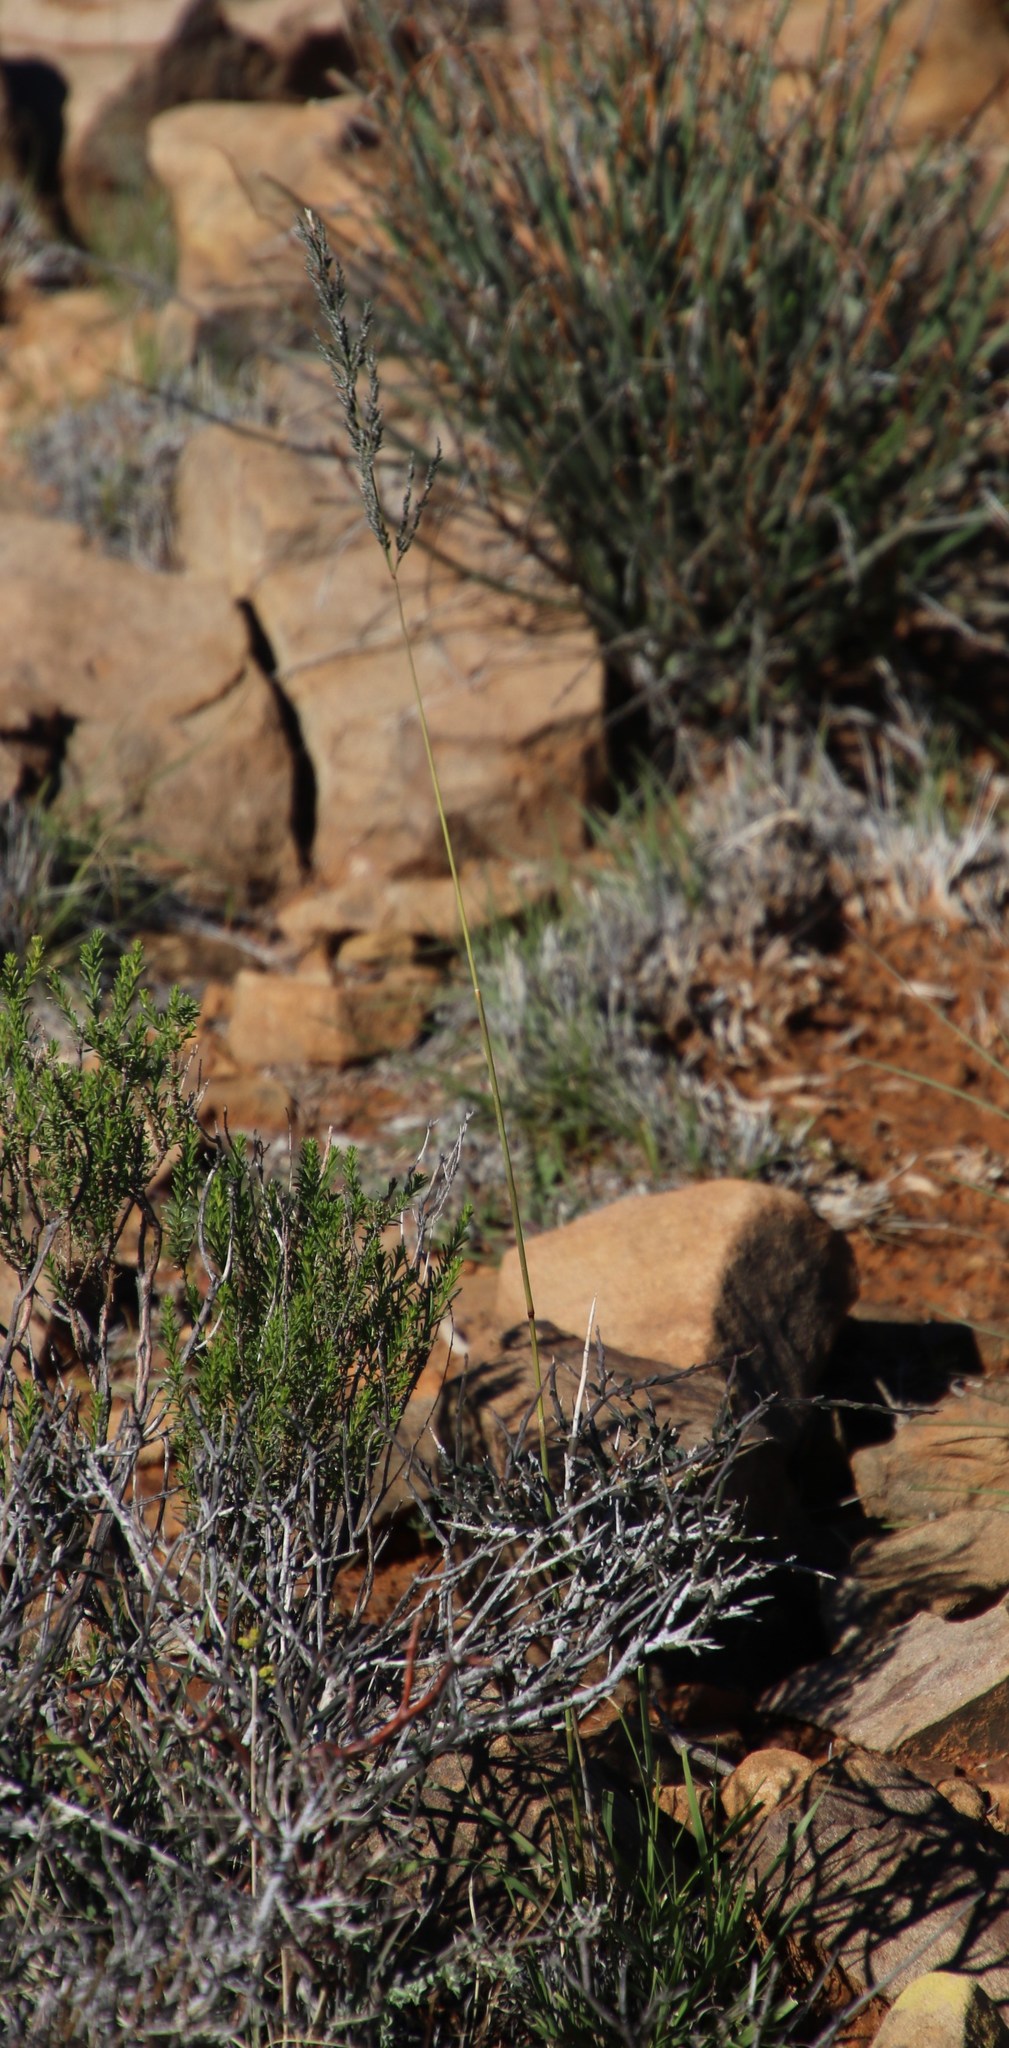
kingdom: Plantae
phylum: Tracheophyta
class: Liliopsida
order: Poales
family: Poaceae
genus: Eragrostis
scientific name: Eragrostis curvula
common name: African love-grass
